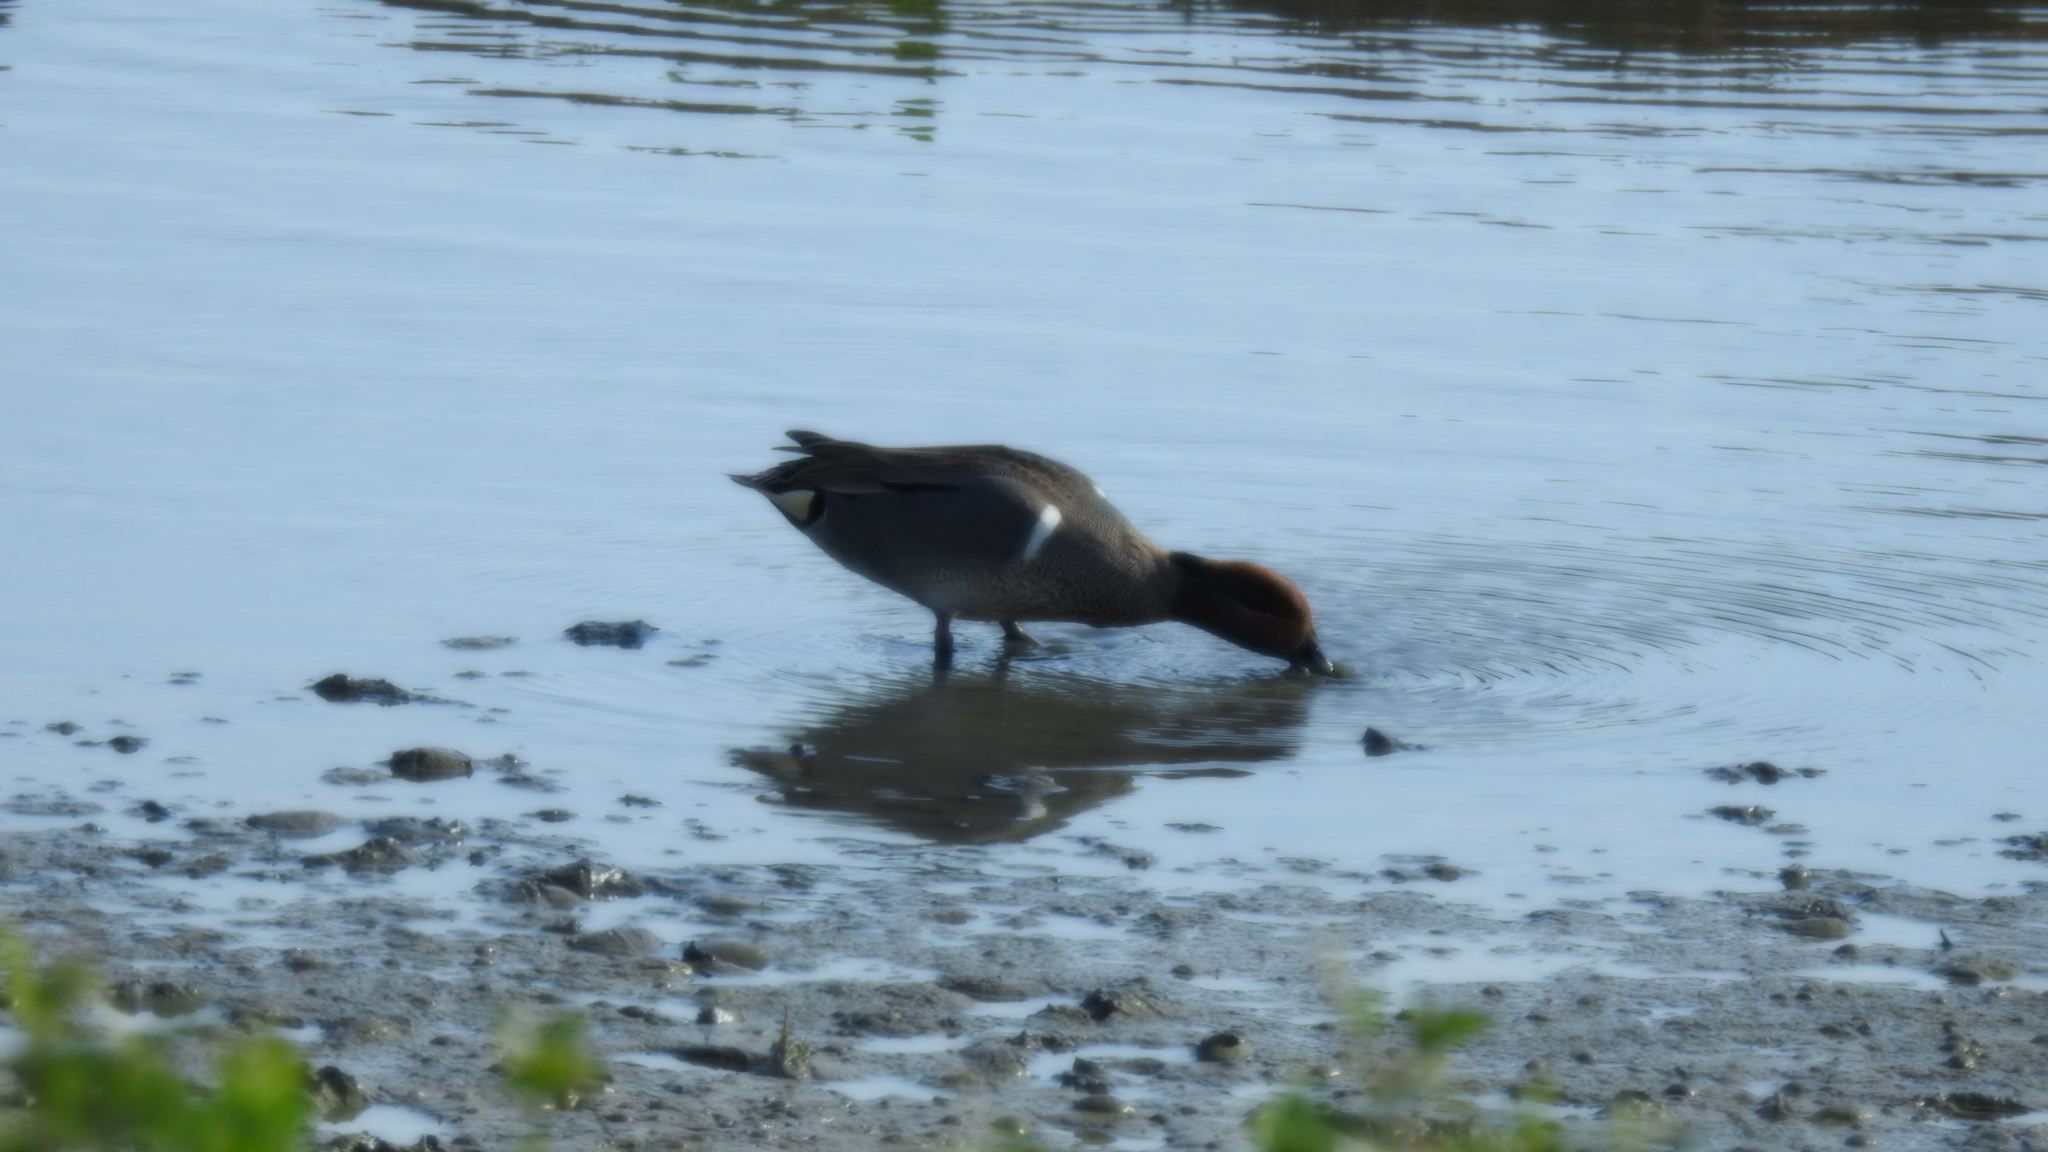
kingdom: Animalia
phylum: Chordata
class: Aves
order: Anseriformes
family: Anatidae
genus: Anas
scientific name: Anas crecca
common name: Eurasian teal
